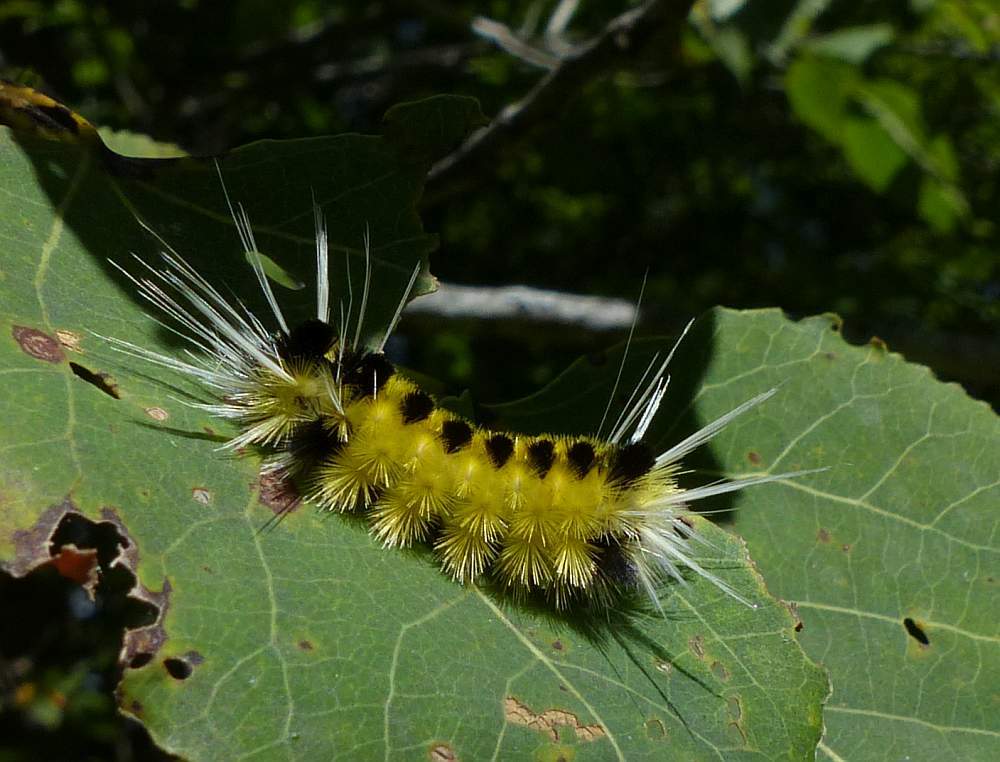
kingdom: Animalia
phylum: Arthropoda
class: Insecta
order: Lepidoptera
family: Erebidae
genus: Lophocampa
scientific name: Lophocampa maculata
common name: Spotted tussock moth
